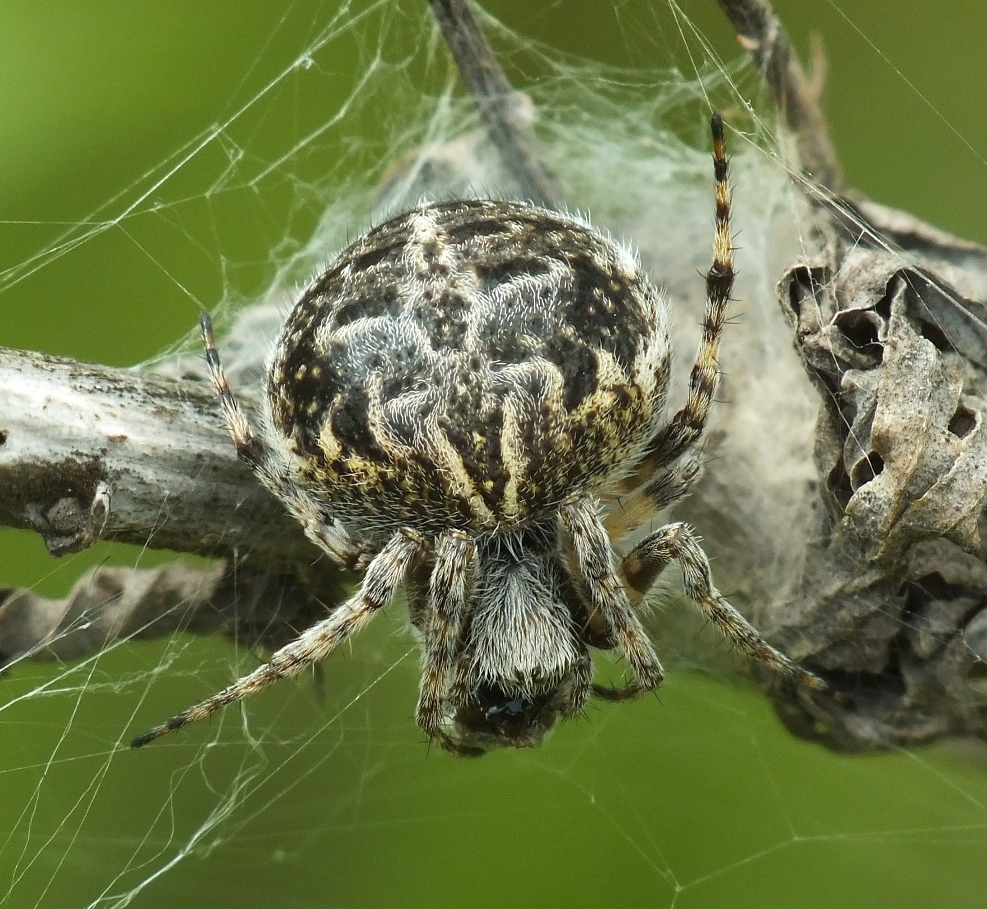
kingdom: Animalia
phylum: Arthropoda
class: Arachnida
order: Araneae
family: Araneidae
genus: Agalenatea
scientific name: Agalenatea redii
